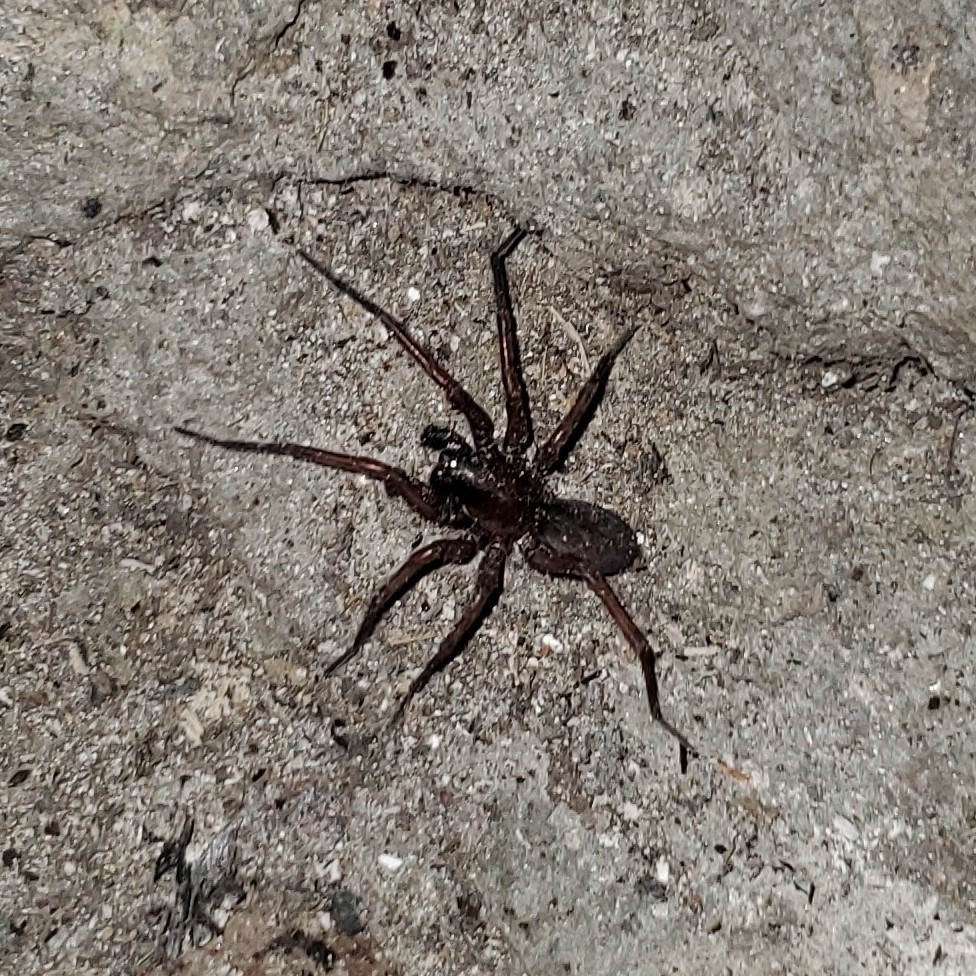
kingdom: Animalia
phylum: Arthropoda
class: Arachnida
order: Araneae
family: Agelenidae
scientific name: Agelenidae
